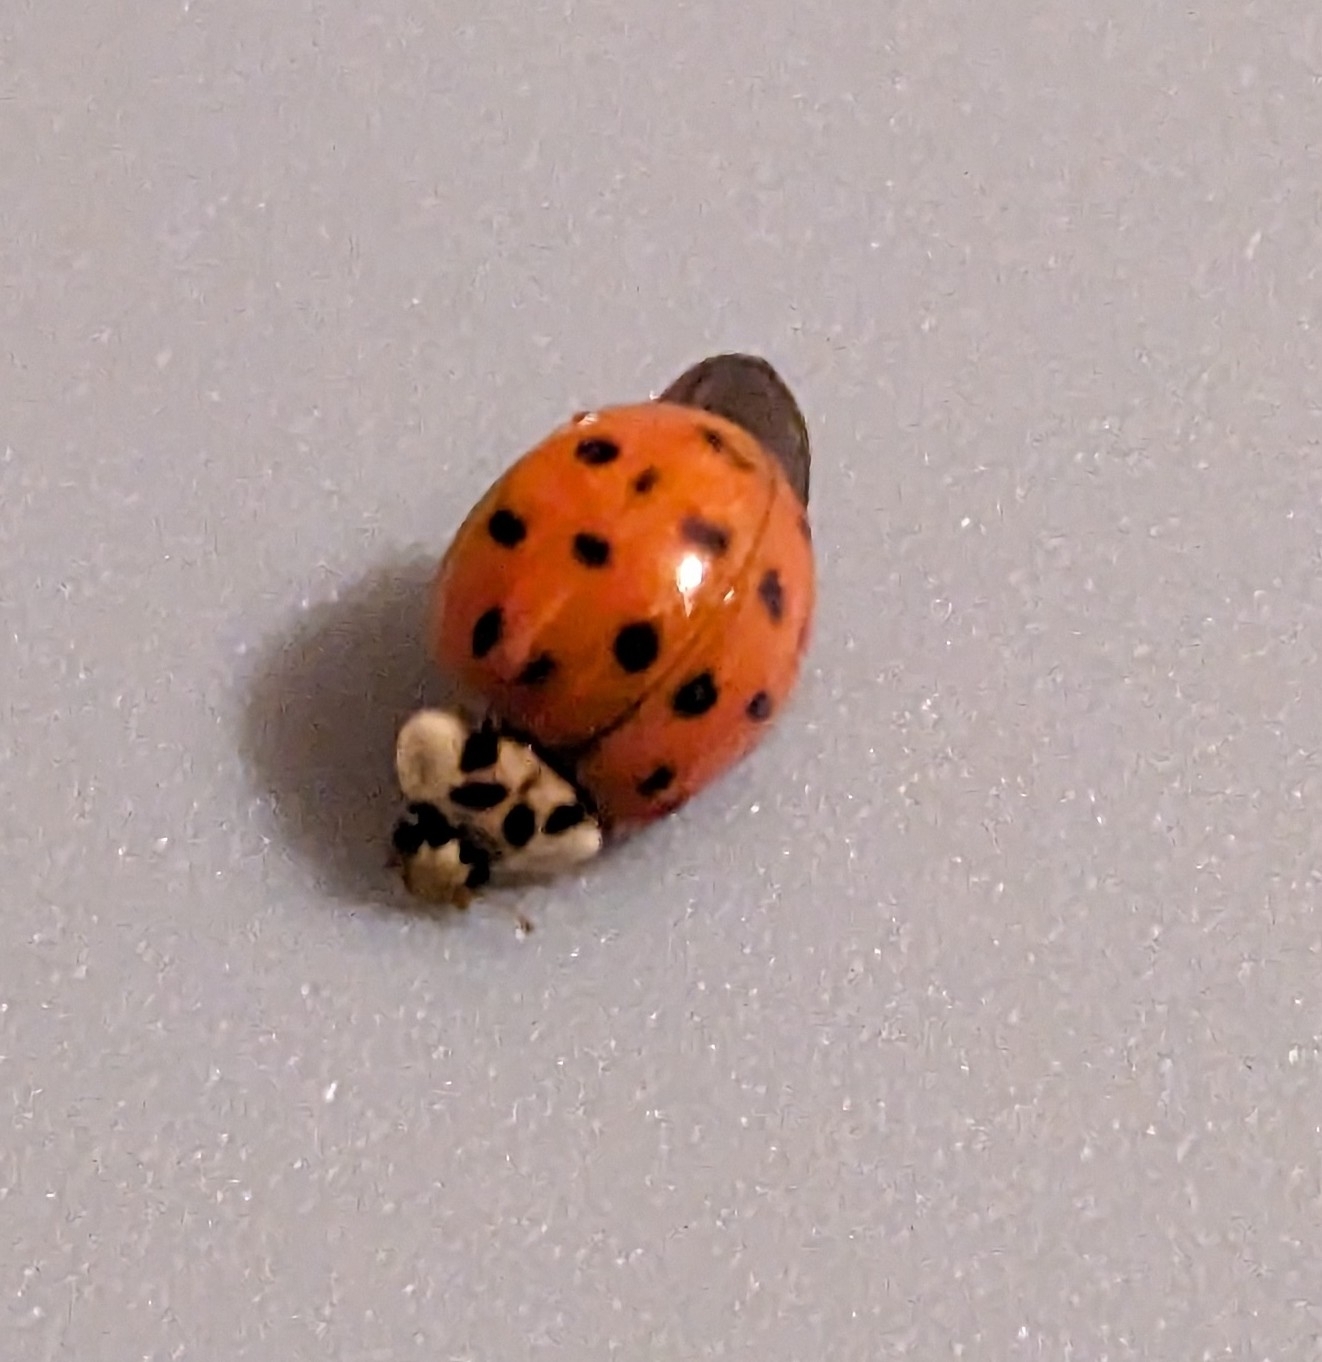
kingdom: Animalia
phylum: Arthropoda
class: Insecta
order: Coleoptera
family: Coccinellidae
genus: Harmonia
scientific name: Harmonia axyridis
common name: Harlequin ladybird
